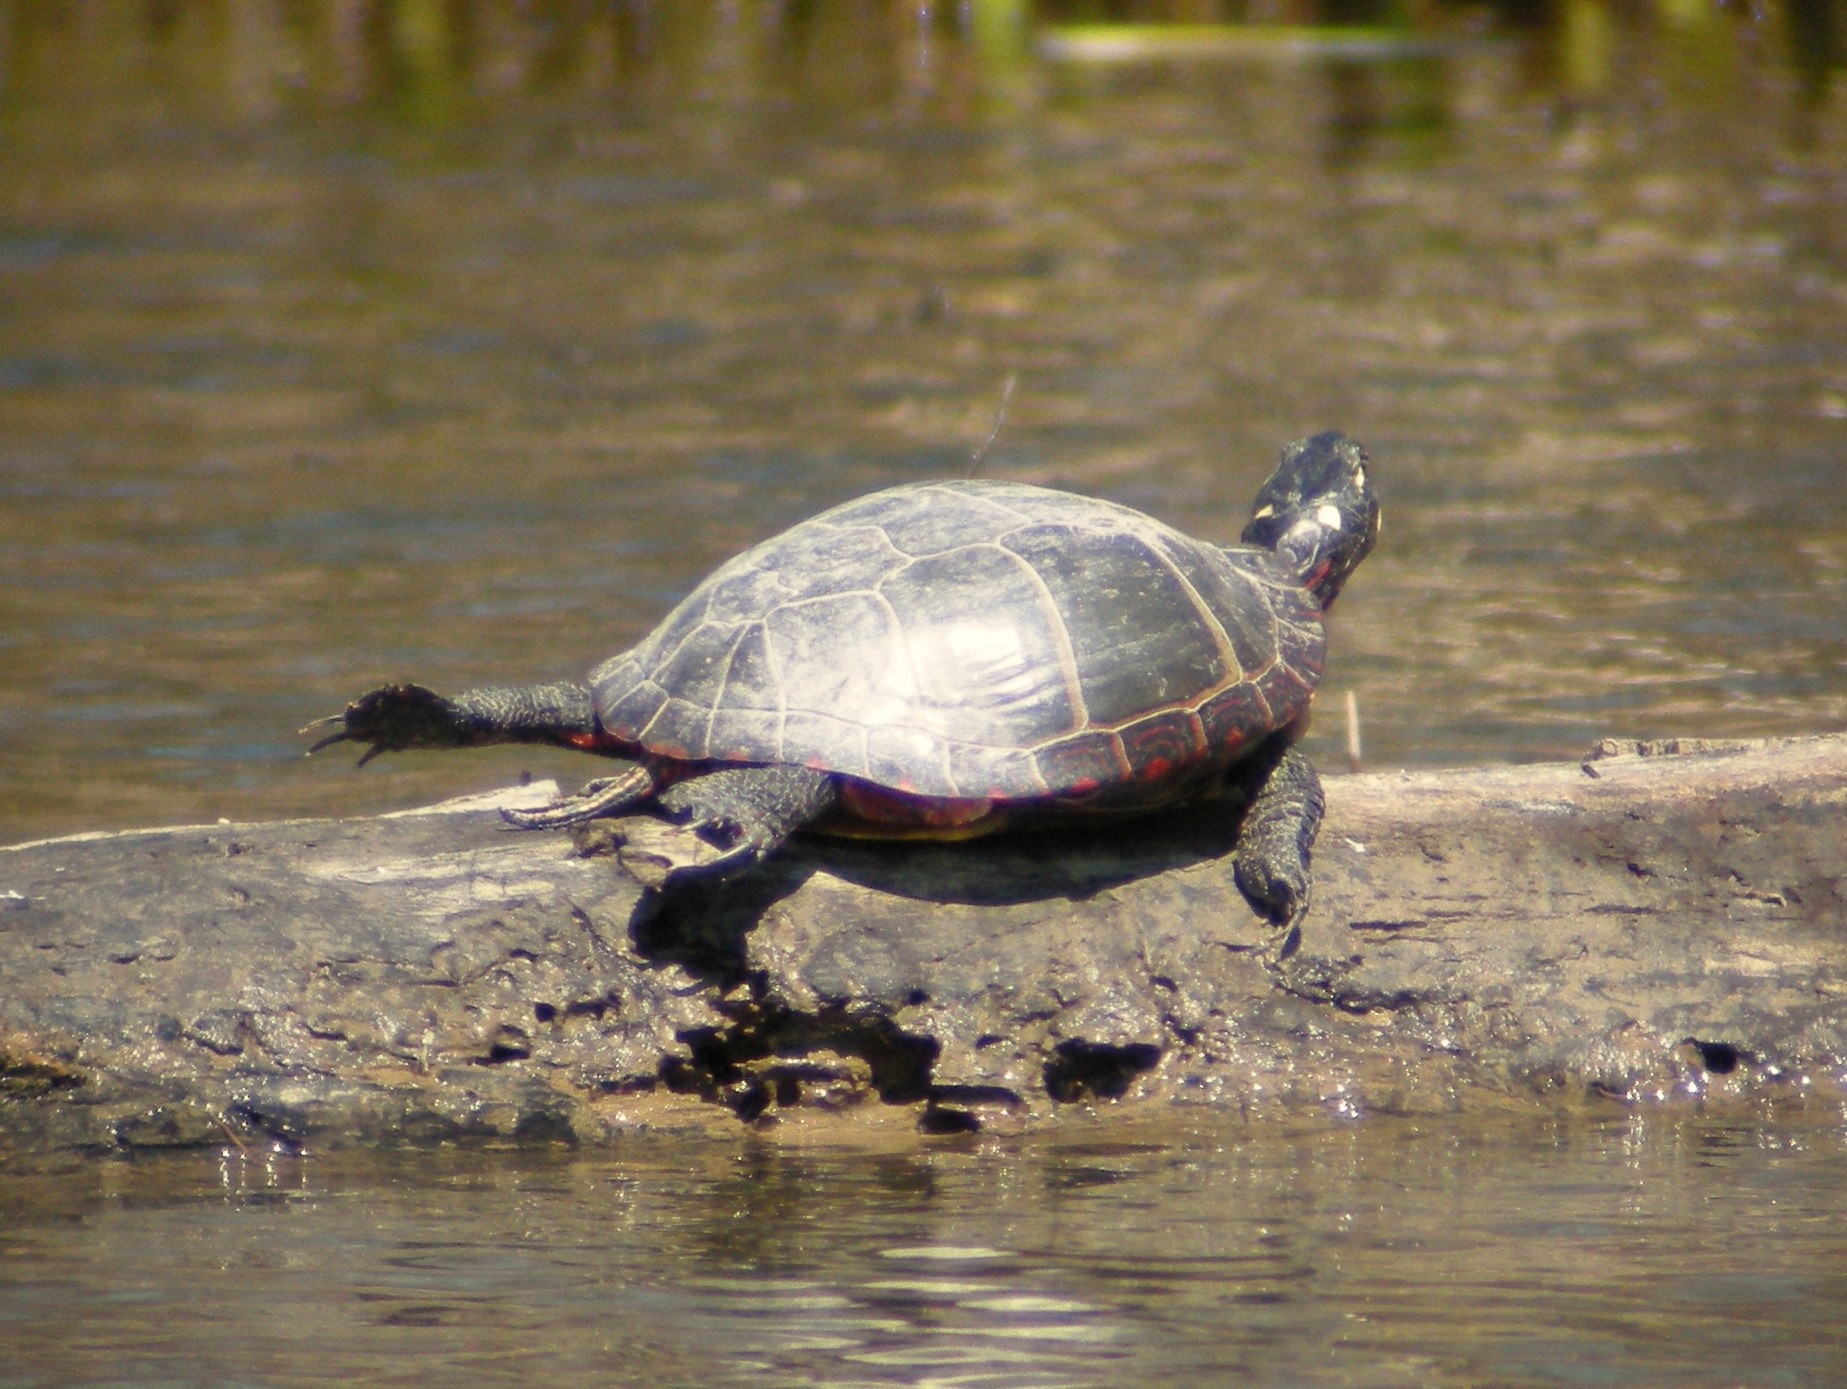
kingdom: Animalia
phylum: Chordata
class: Testudines
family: Emydidae
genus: Chrysemys
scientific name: Chrysemys picta
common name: Painted turtle
